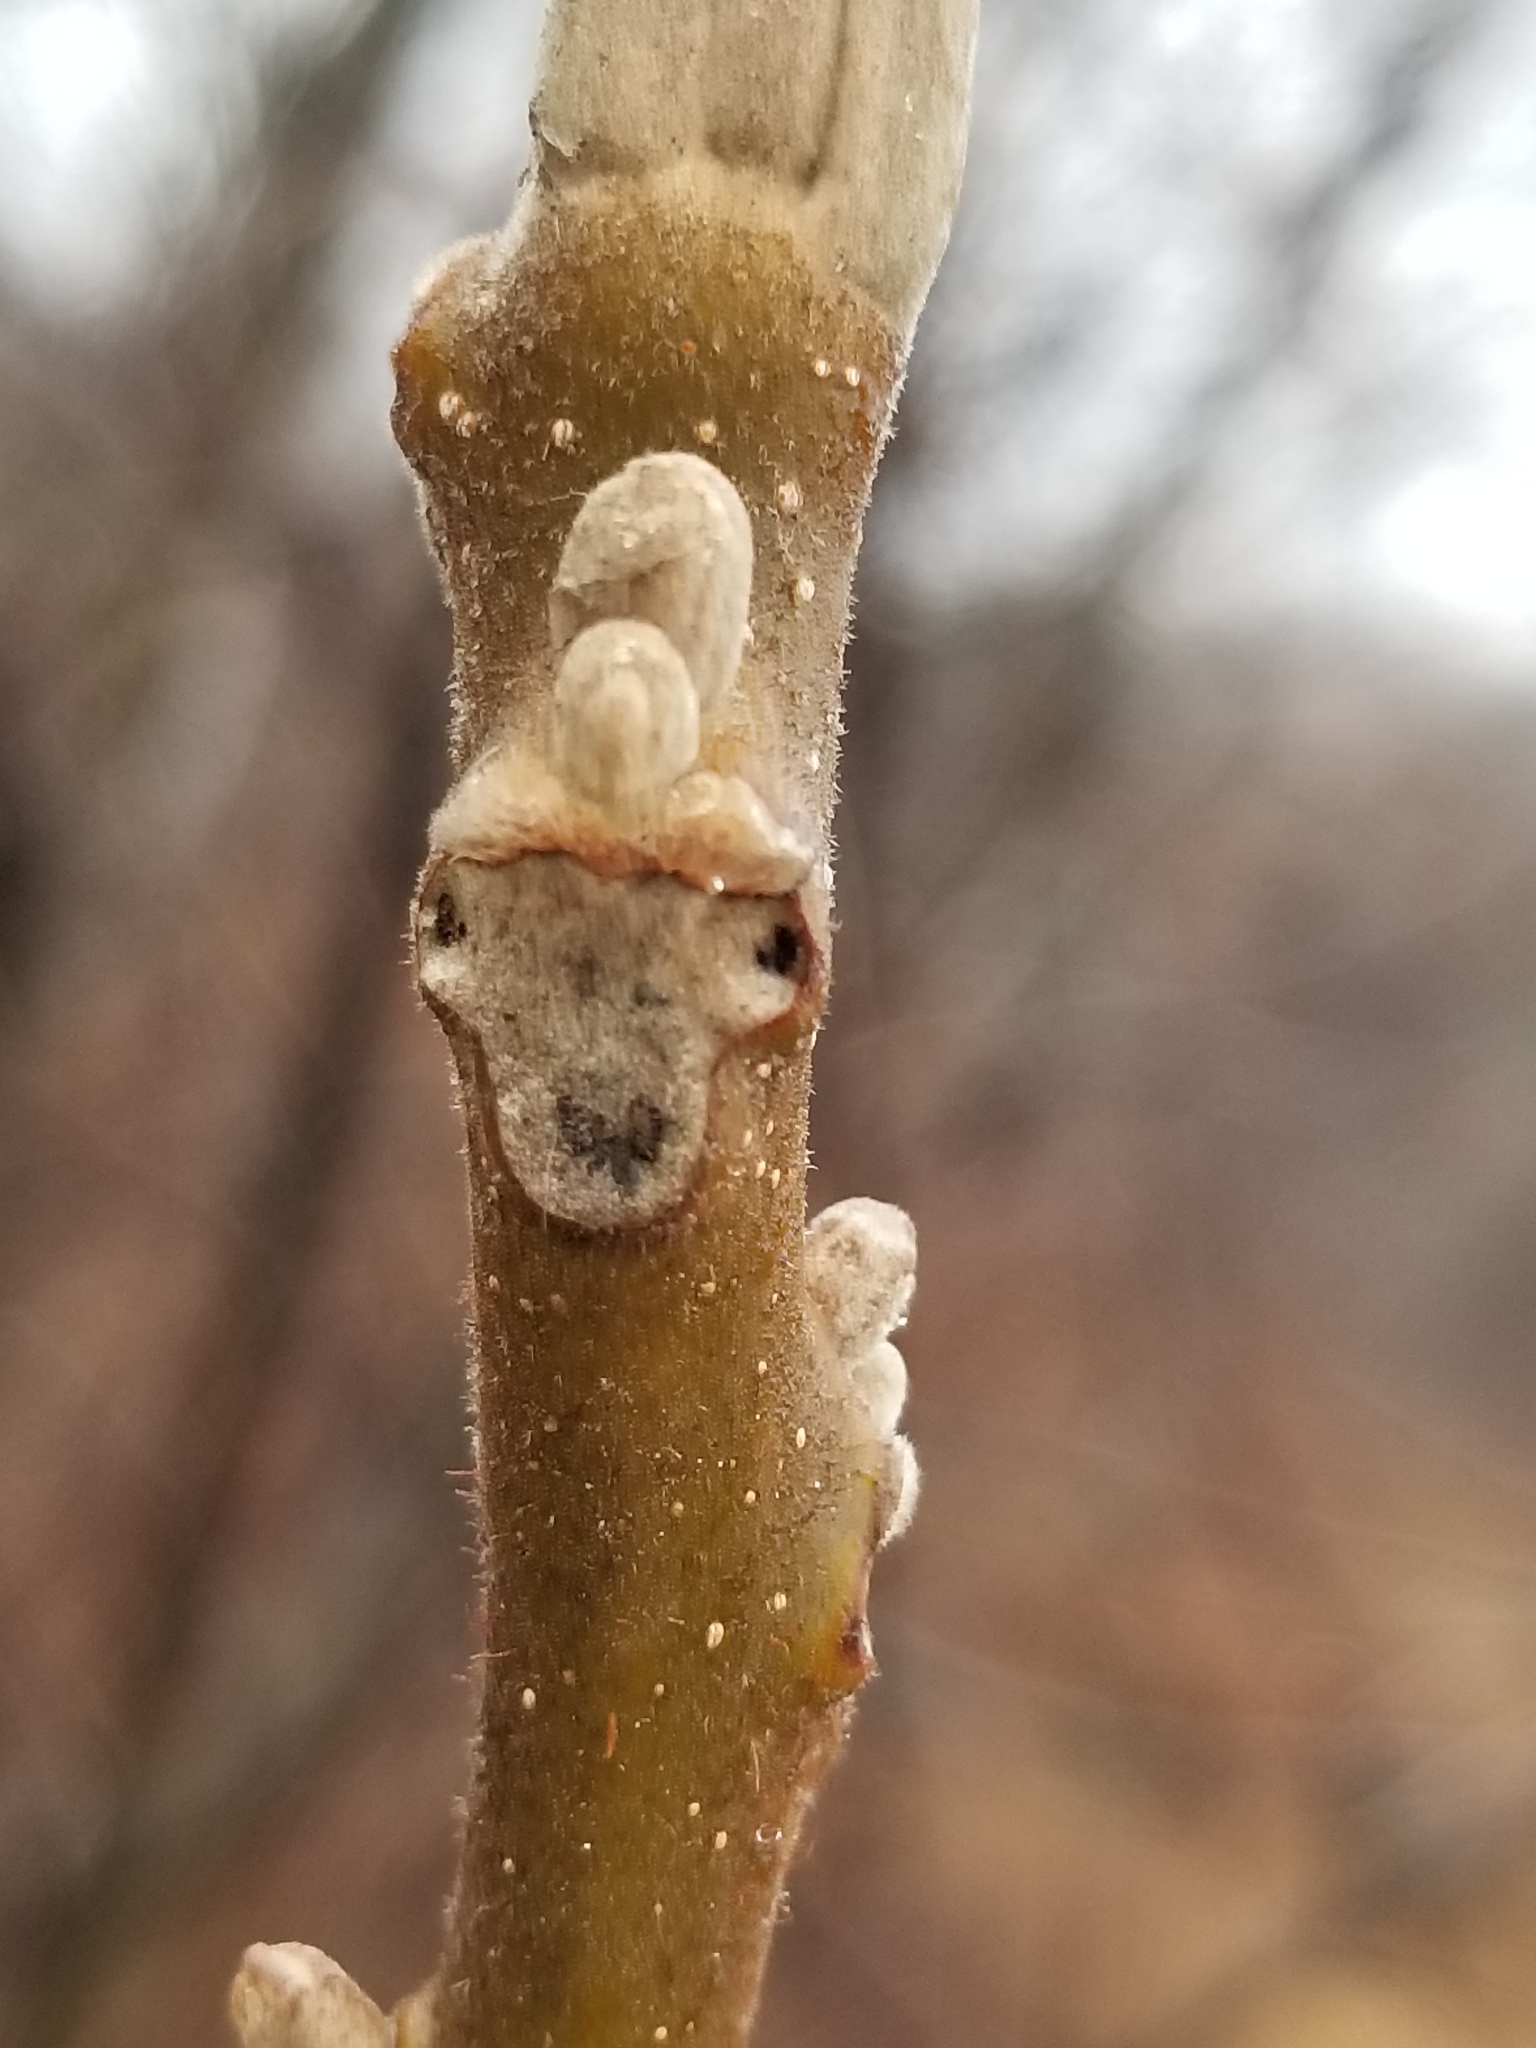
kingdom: Plantae
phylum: Tracheophyta
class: Magnoliopsida
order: Fagales
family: Juglandaceae
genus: Juglans
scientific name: Juglans cinerea
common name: Butternut
